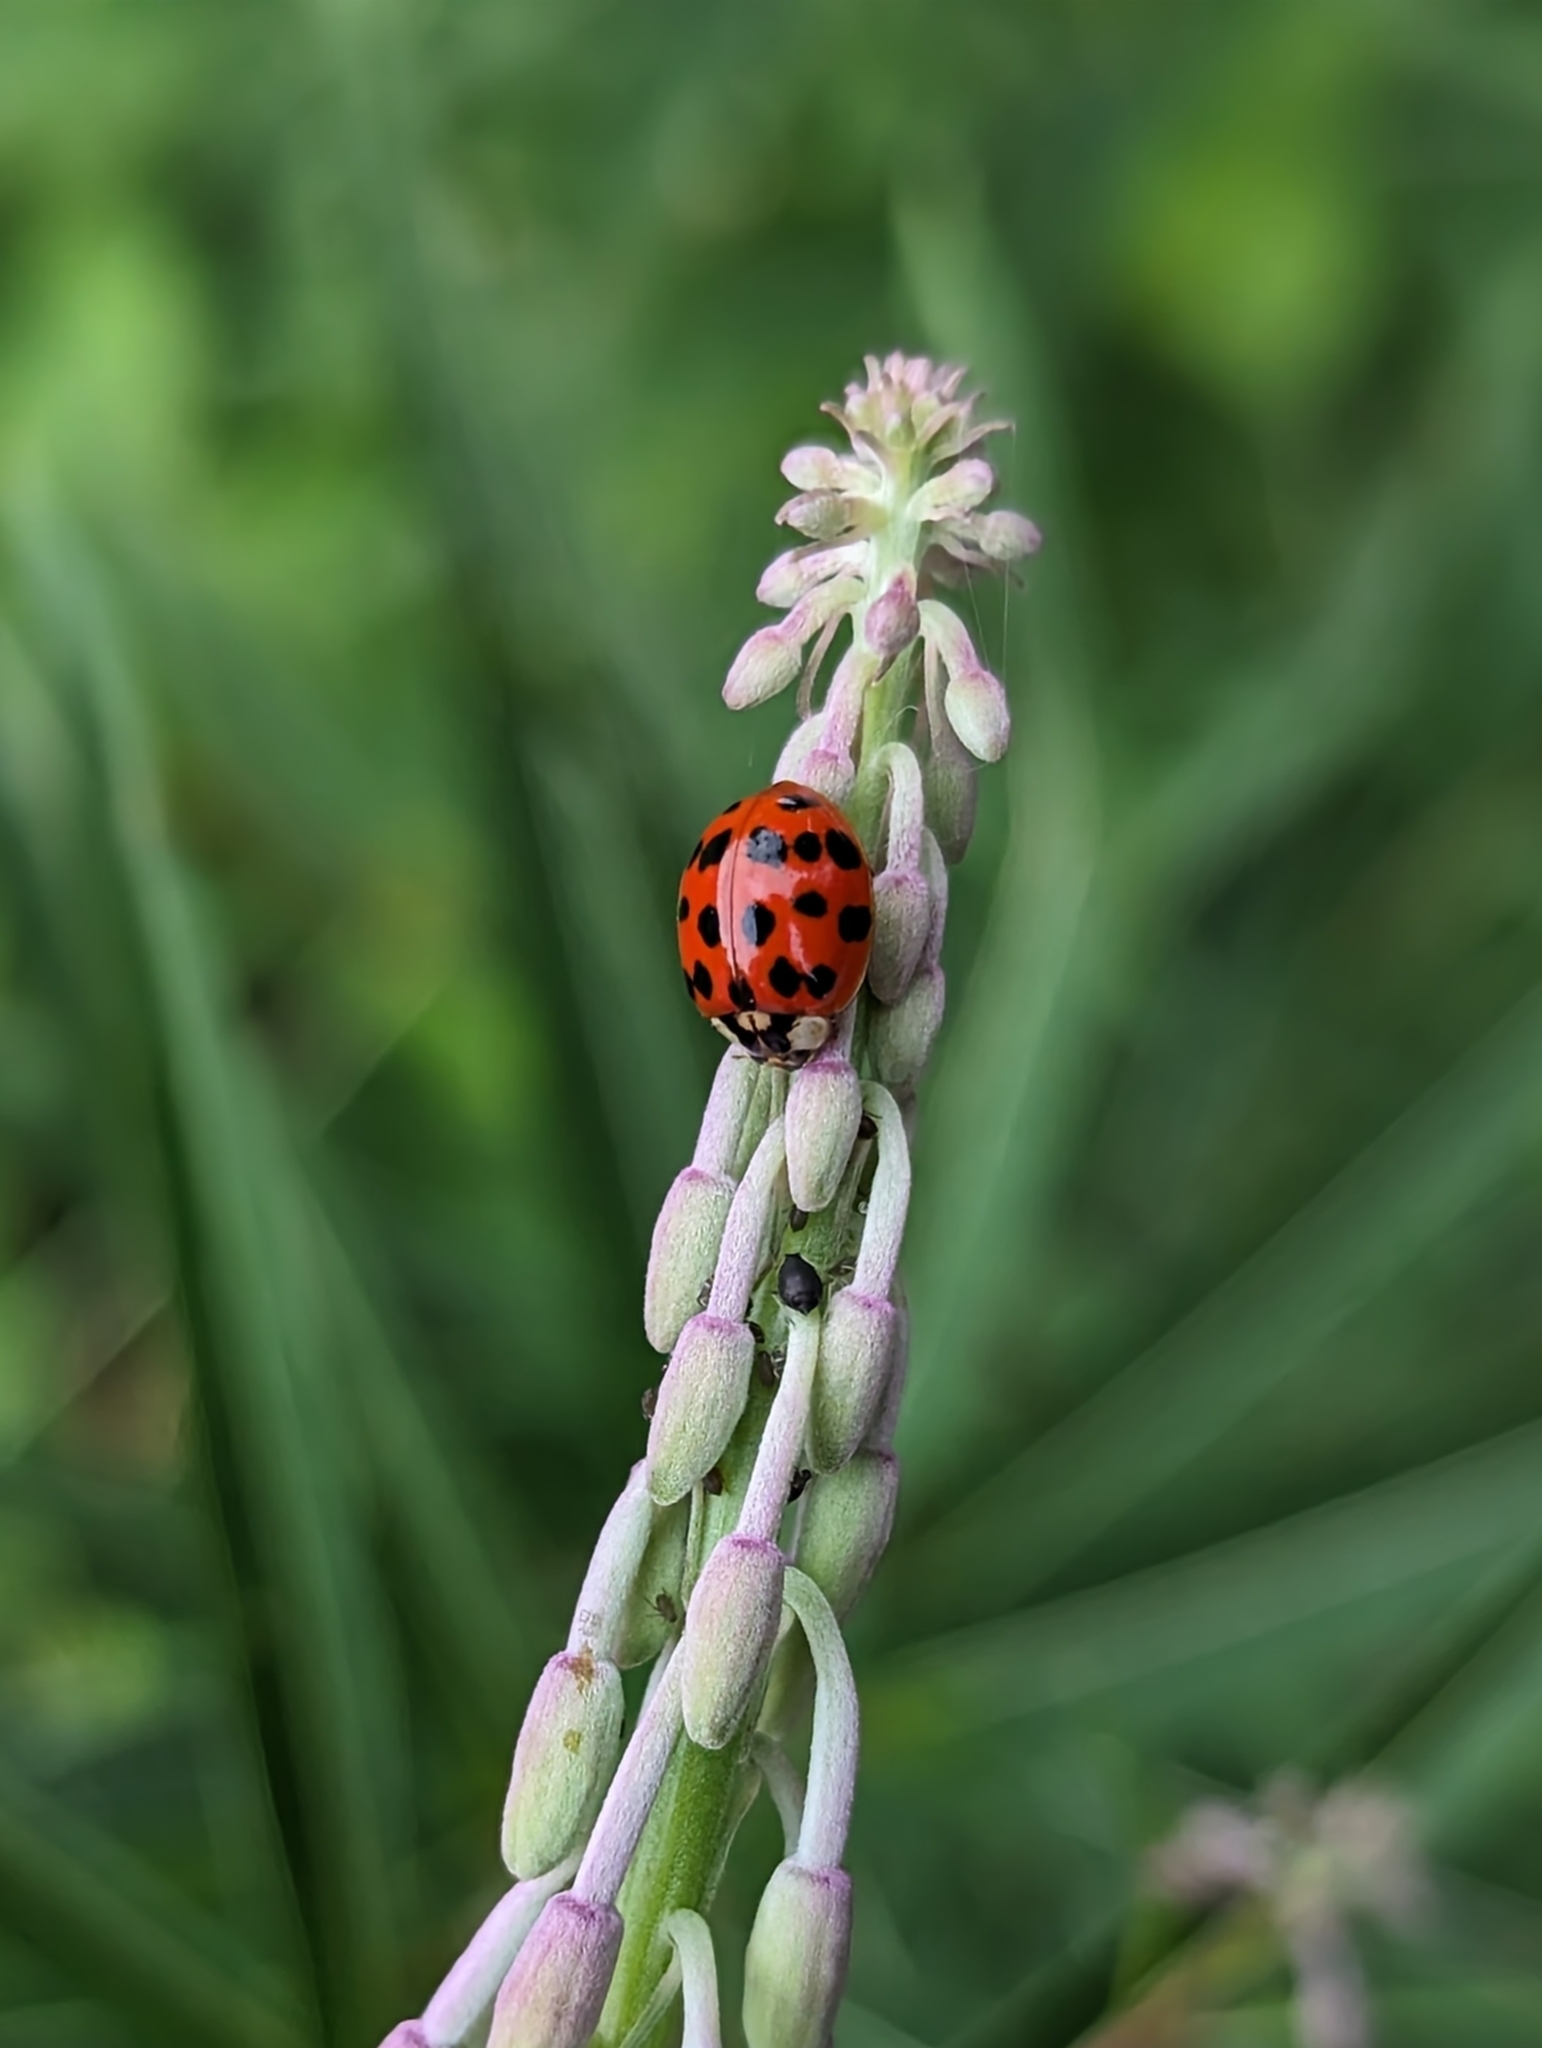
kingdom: Animalia
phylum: Arthropoda
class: Insecta
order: Coleoptera
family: Coccinellidae
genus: Harmonia
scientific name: Harmonia axyridis
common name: Harlequin ladybird
